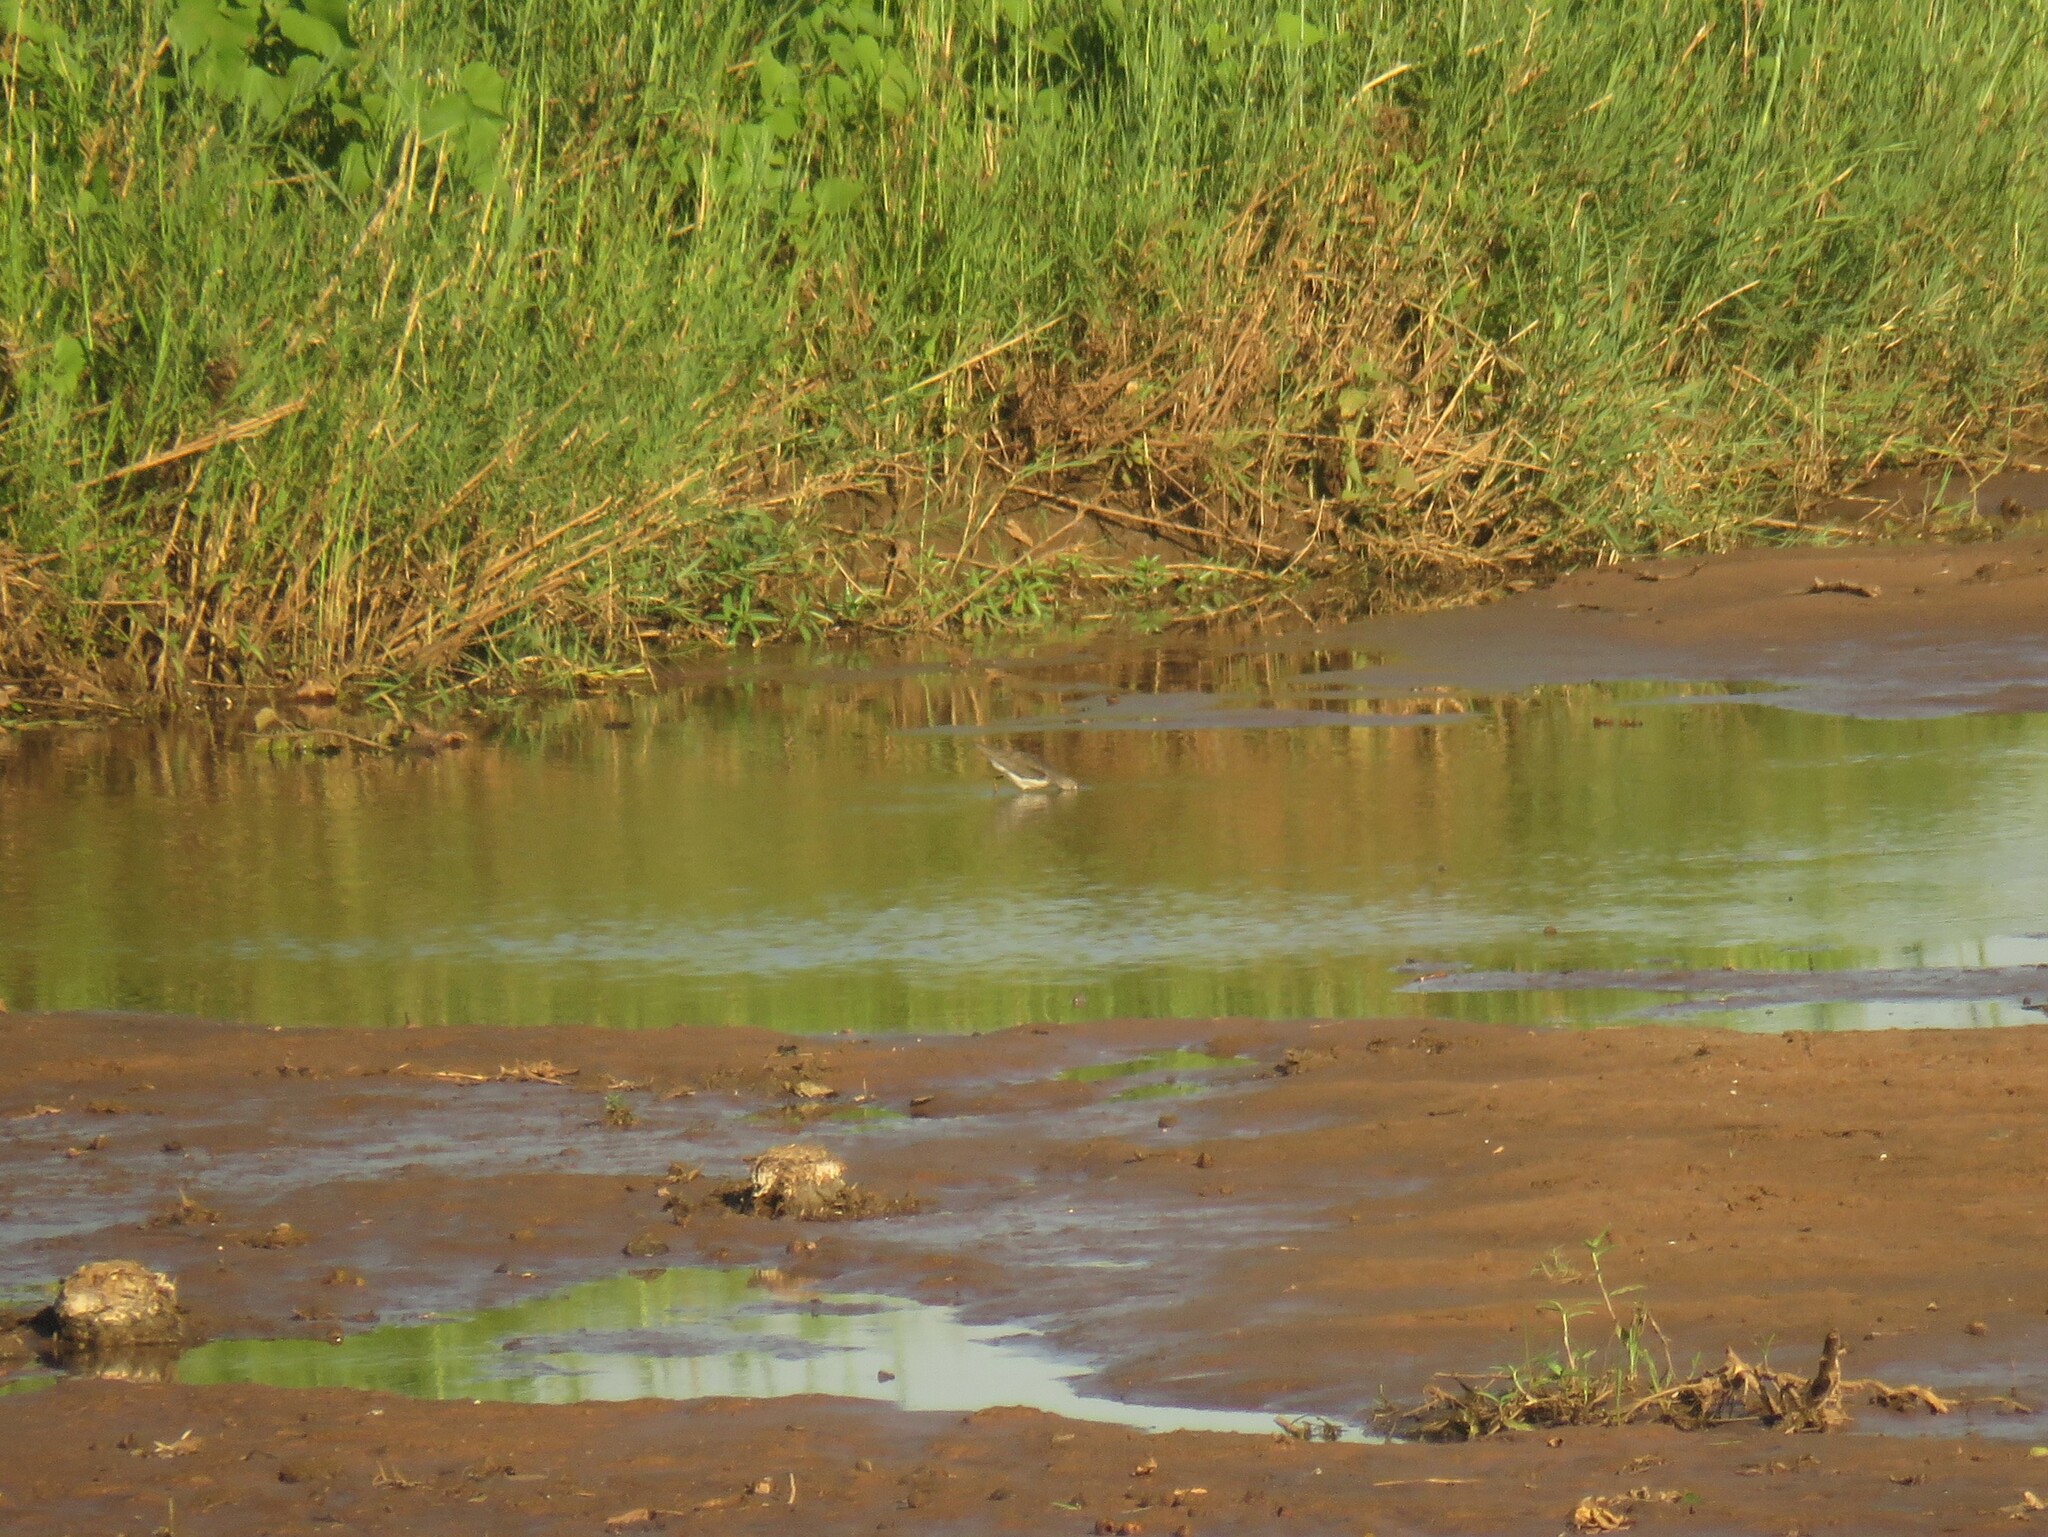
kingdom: Animalia
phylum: Chordata
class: Aves
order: Charadriiformes
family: Scolopacidae
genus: Tringa
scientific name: Tringa ochropus
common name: Green sandpiper
